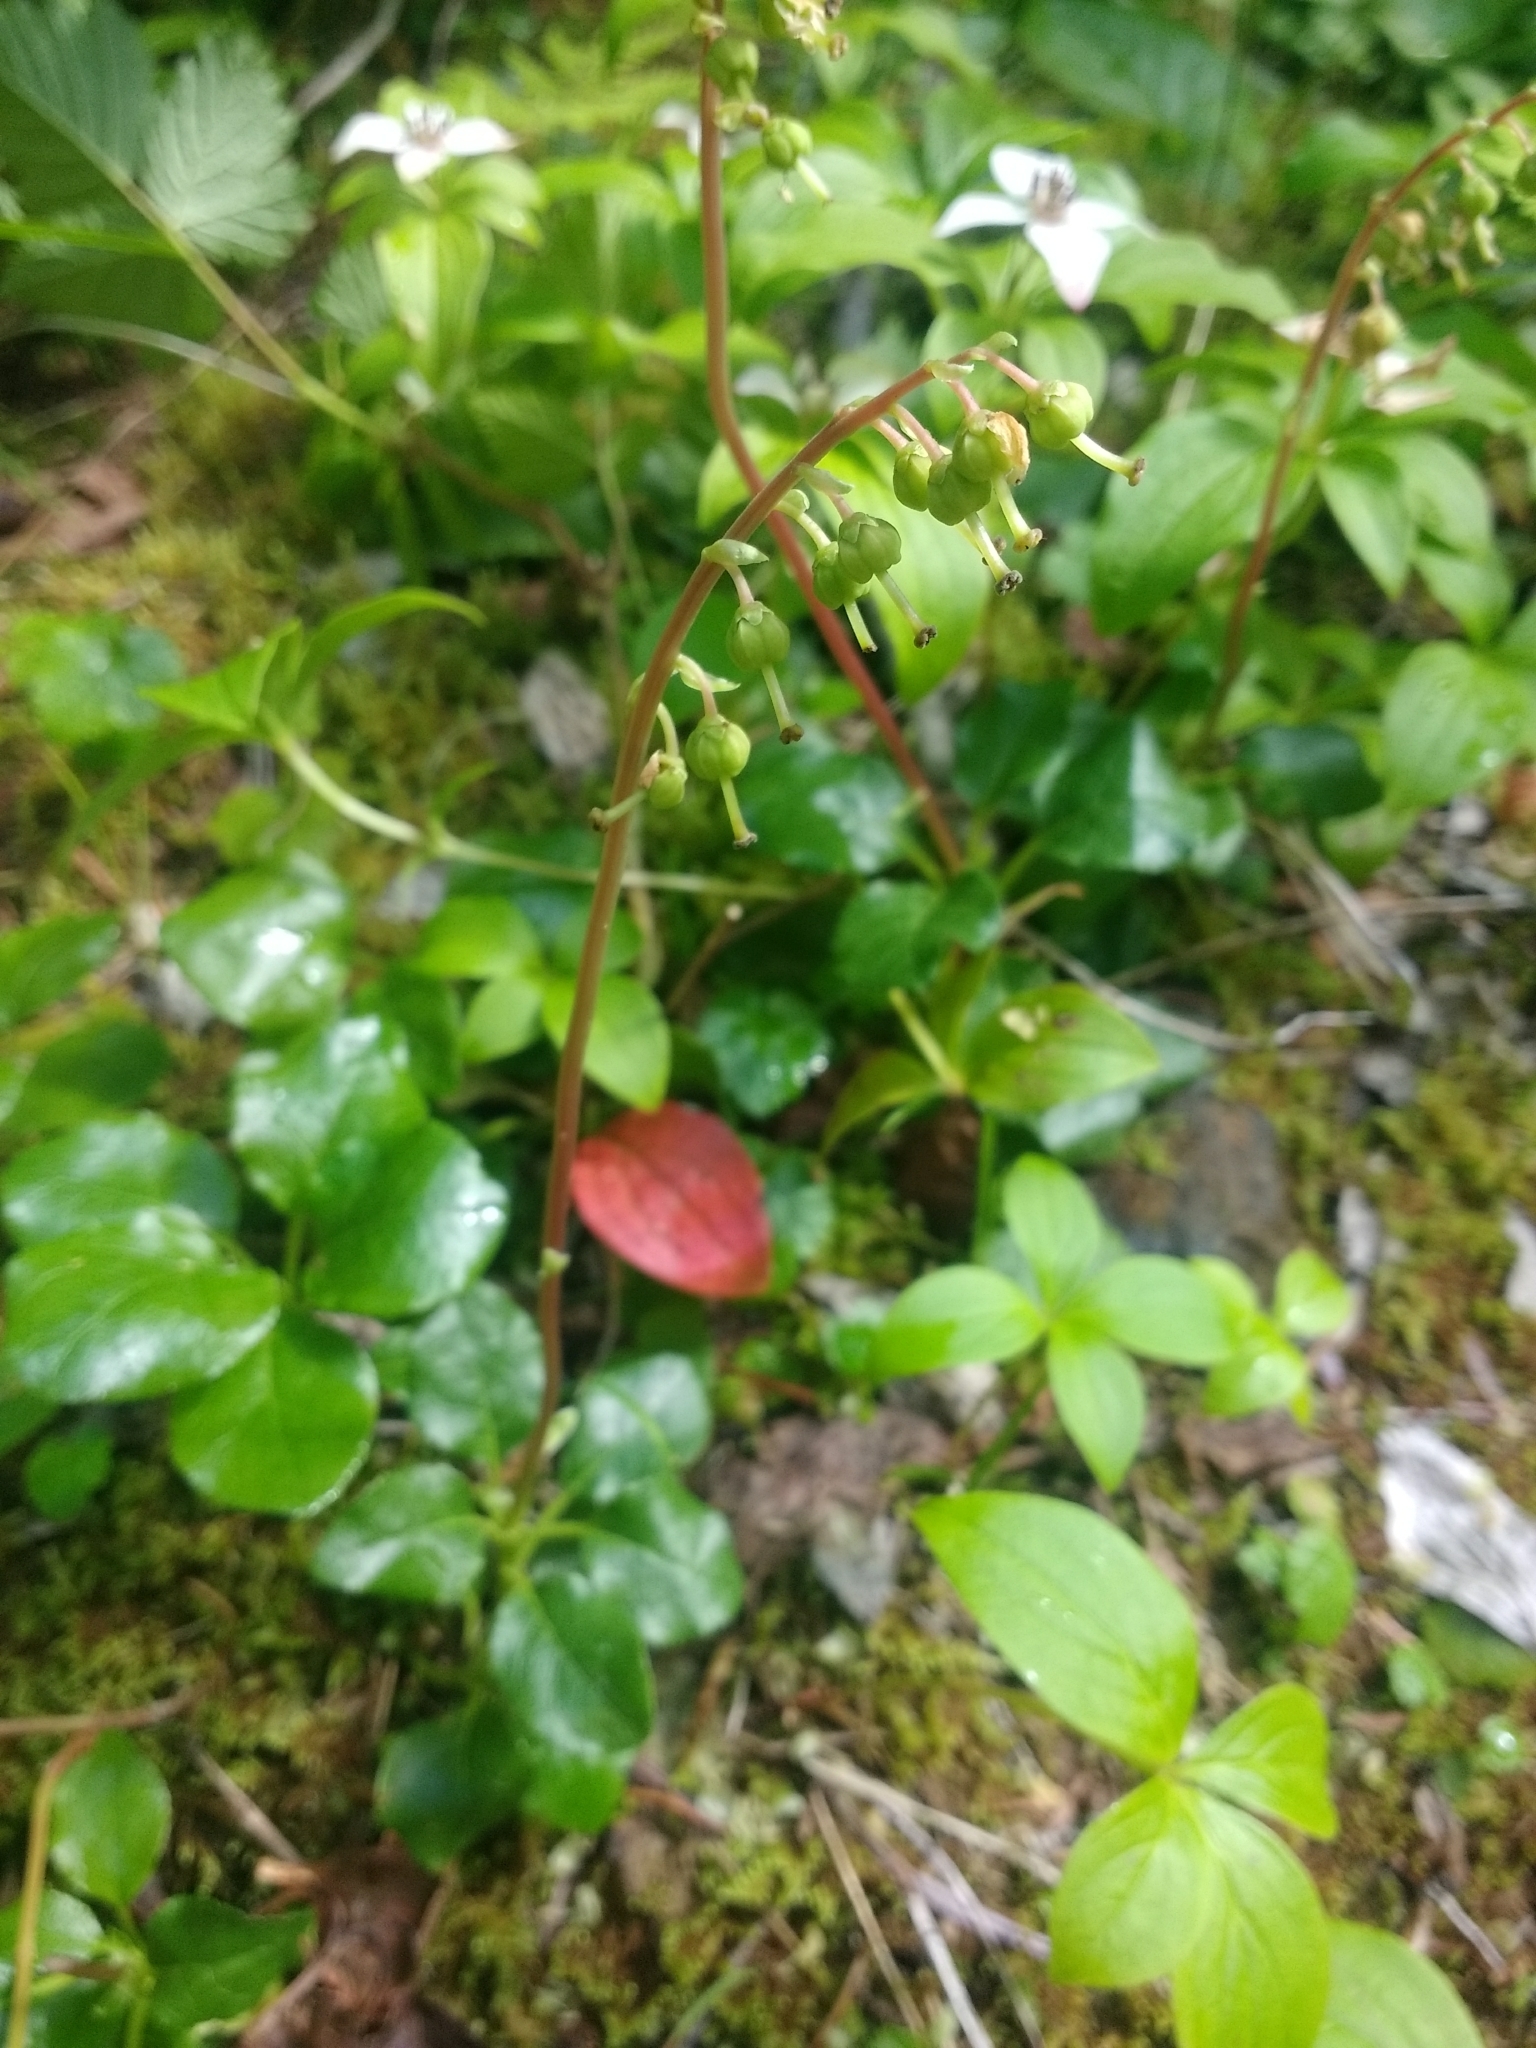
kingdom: Plantae
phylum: Tracheophyta
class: Magnoliopsida
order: Ericales
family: Ericaceae
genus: Orthilia
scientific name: Orthilia secunda
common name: One-sided orthilia
